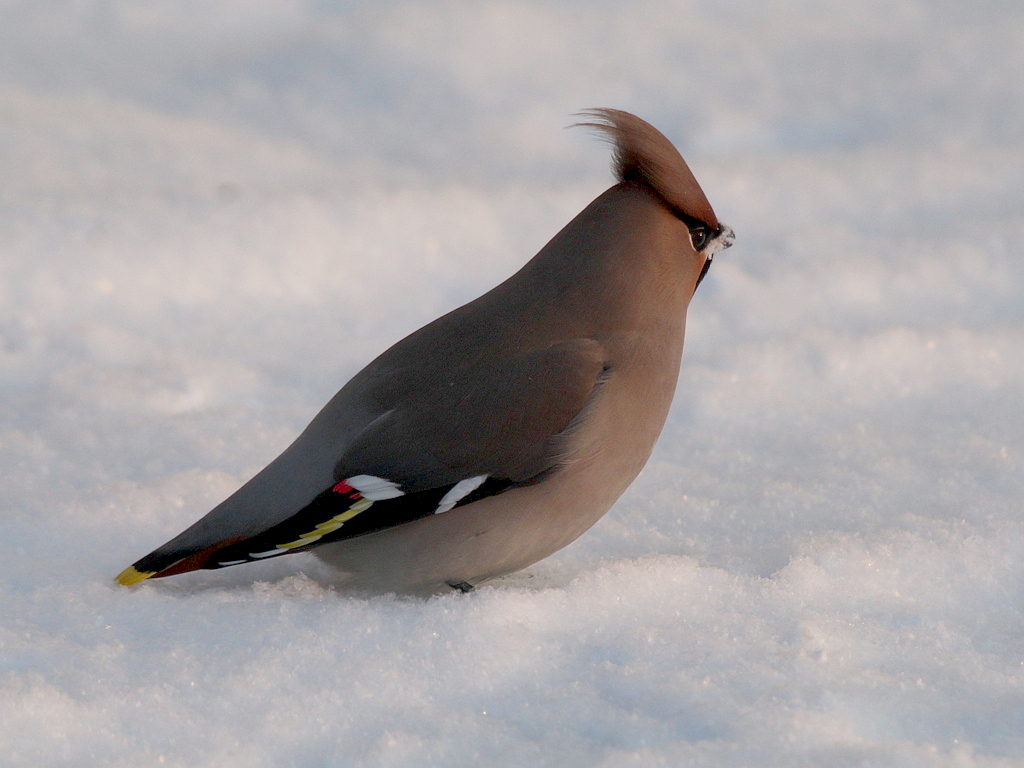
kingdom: Animalia
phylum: Chordata
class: Aves
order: Passeriformes
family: Bombycillidae
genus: Bombycilla
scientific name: Bombycilla garrulus
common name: Bohemian waxwing
